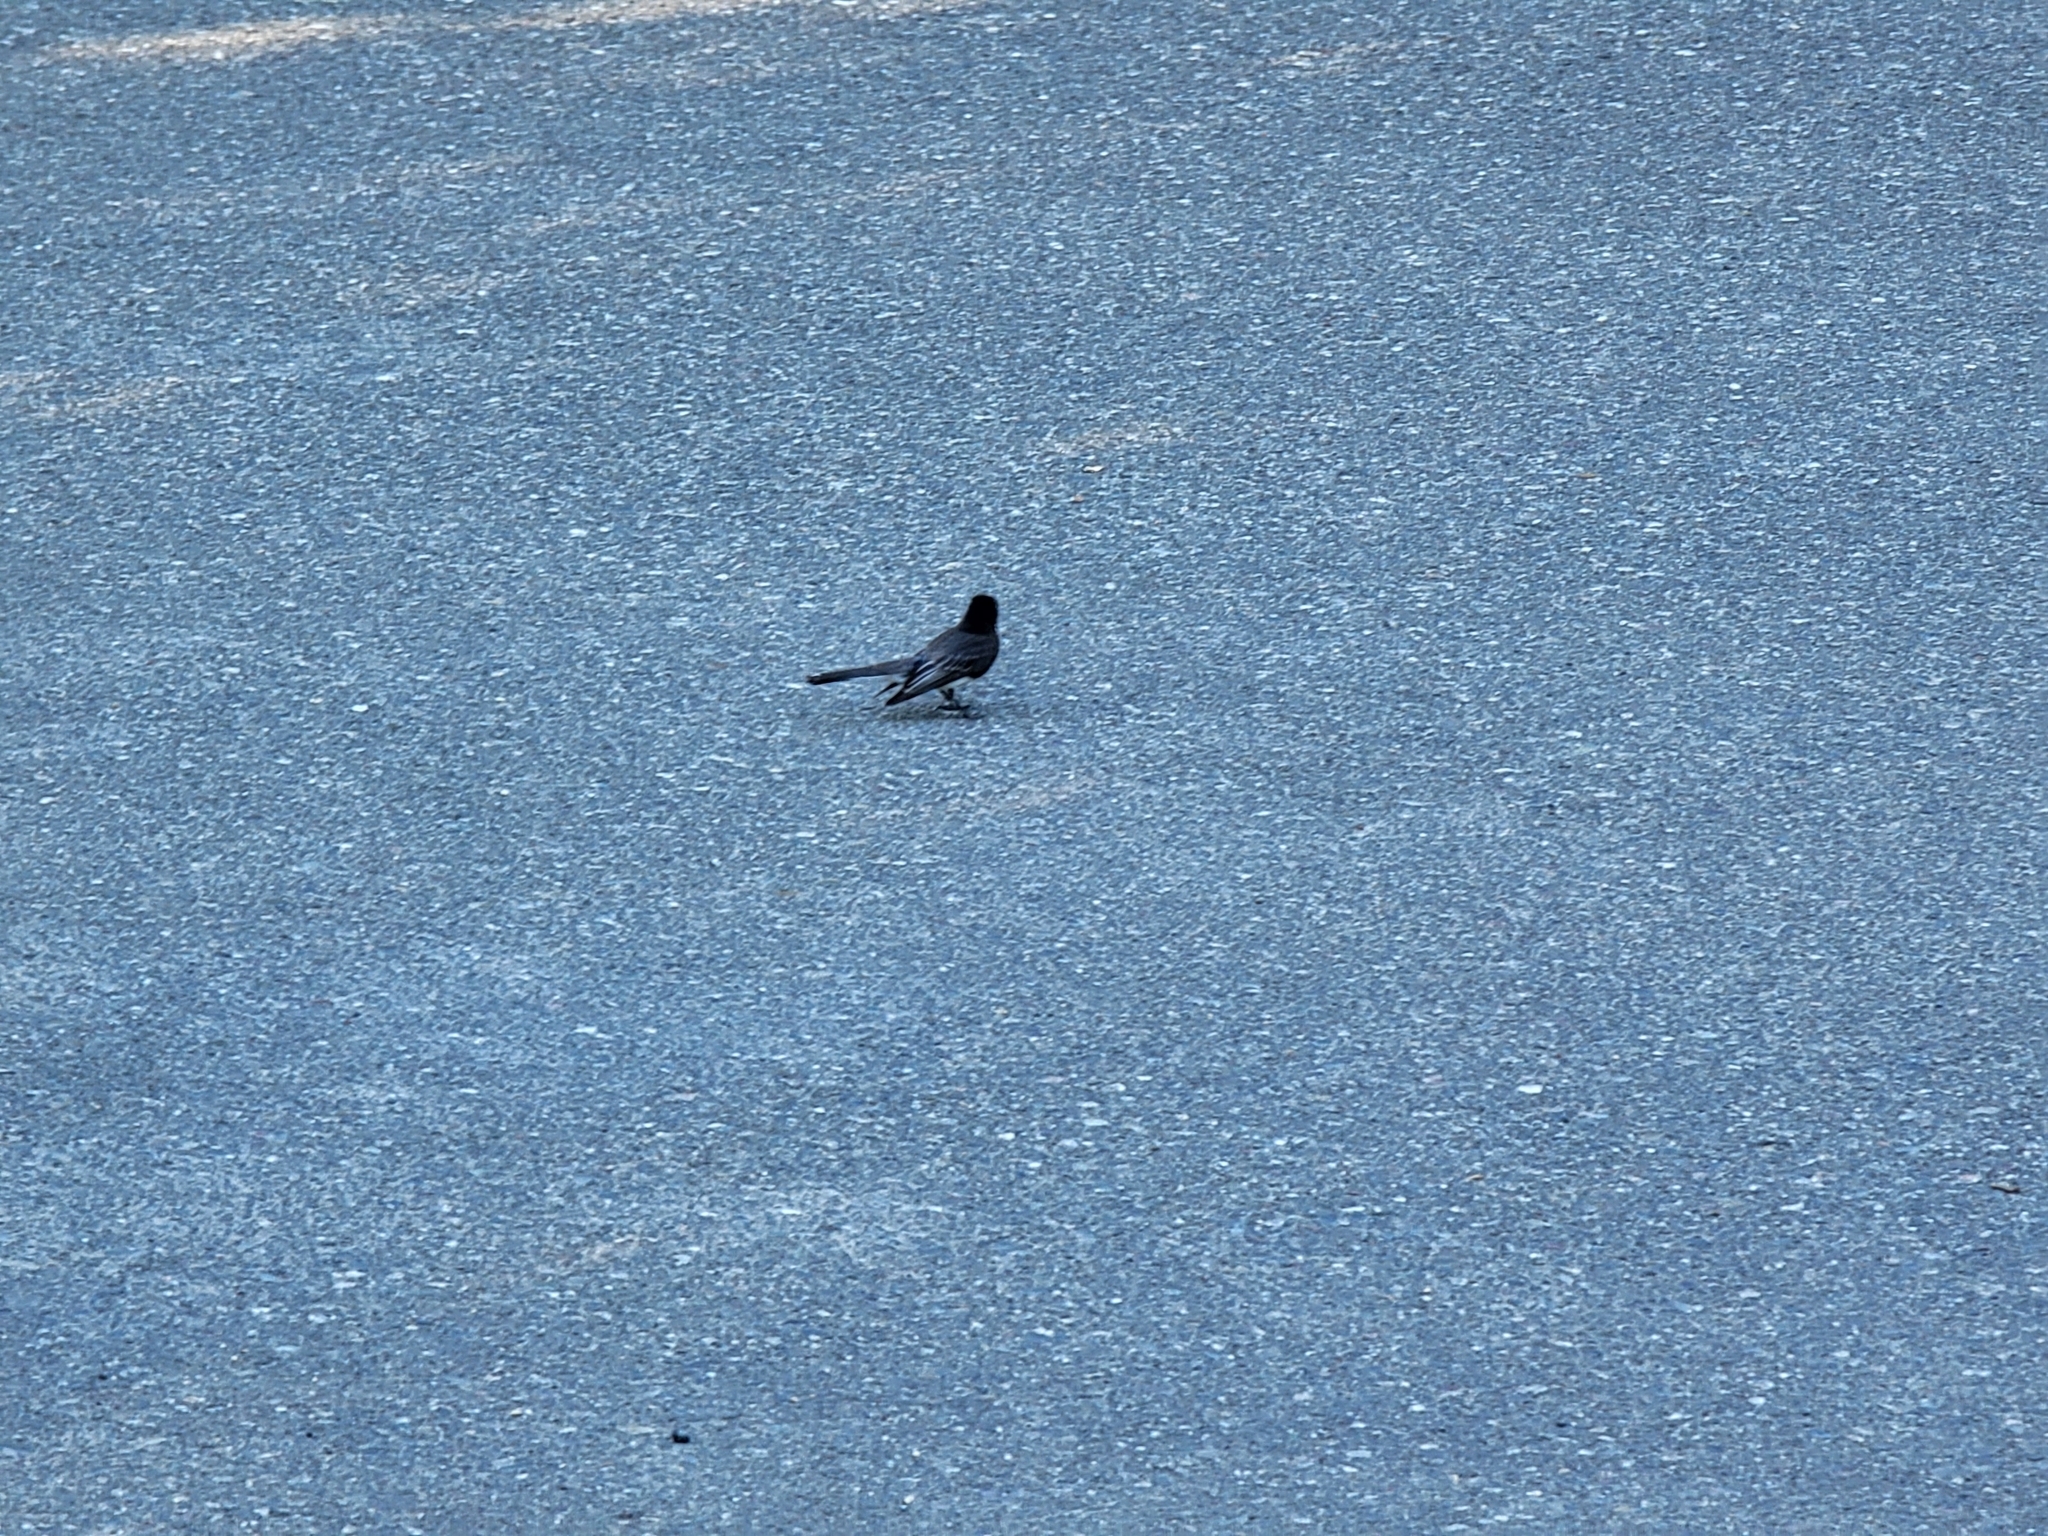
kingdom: Animalia
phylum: Chordata
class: Aves
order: Passeriformes
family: Tyrannidae
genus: Sayornis
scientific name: Sayornis nigricans
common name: Black phoebe
